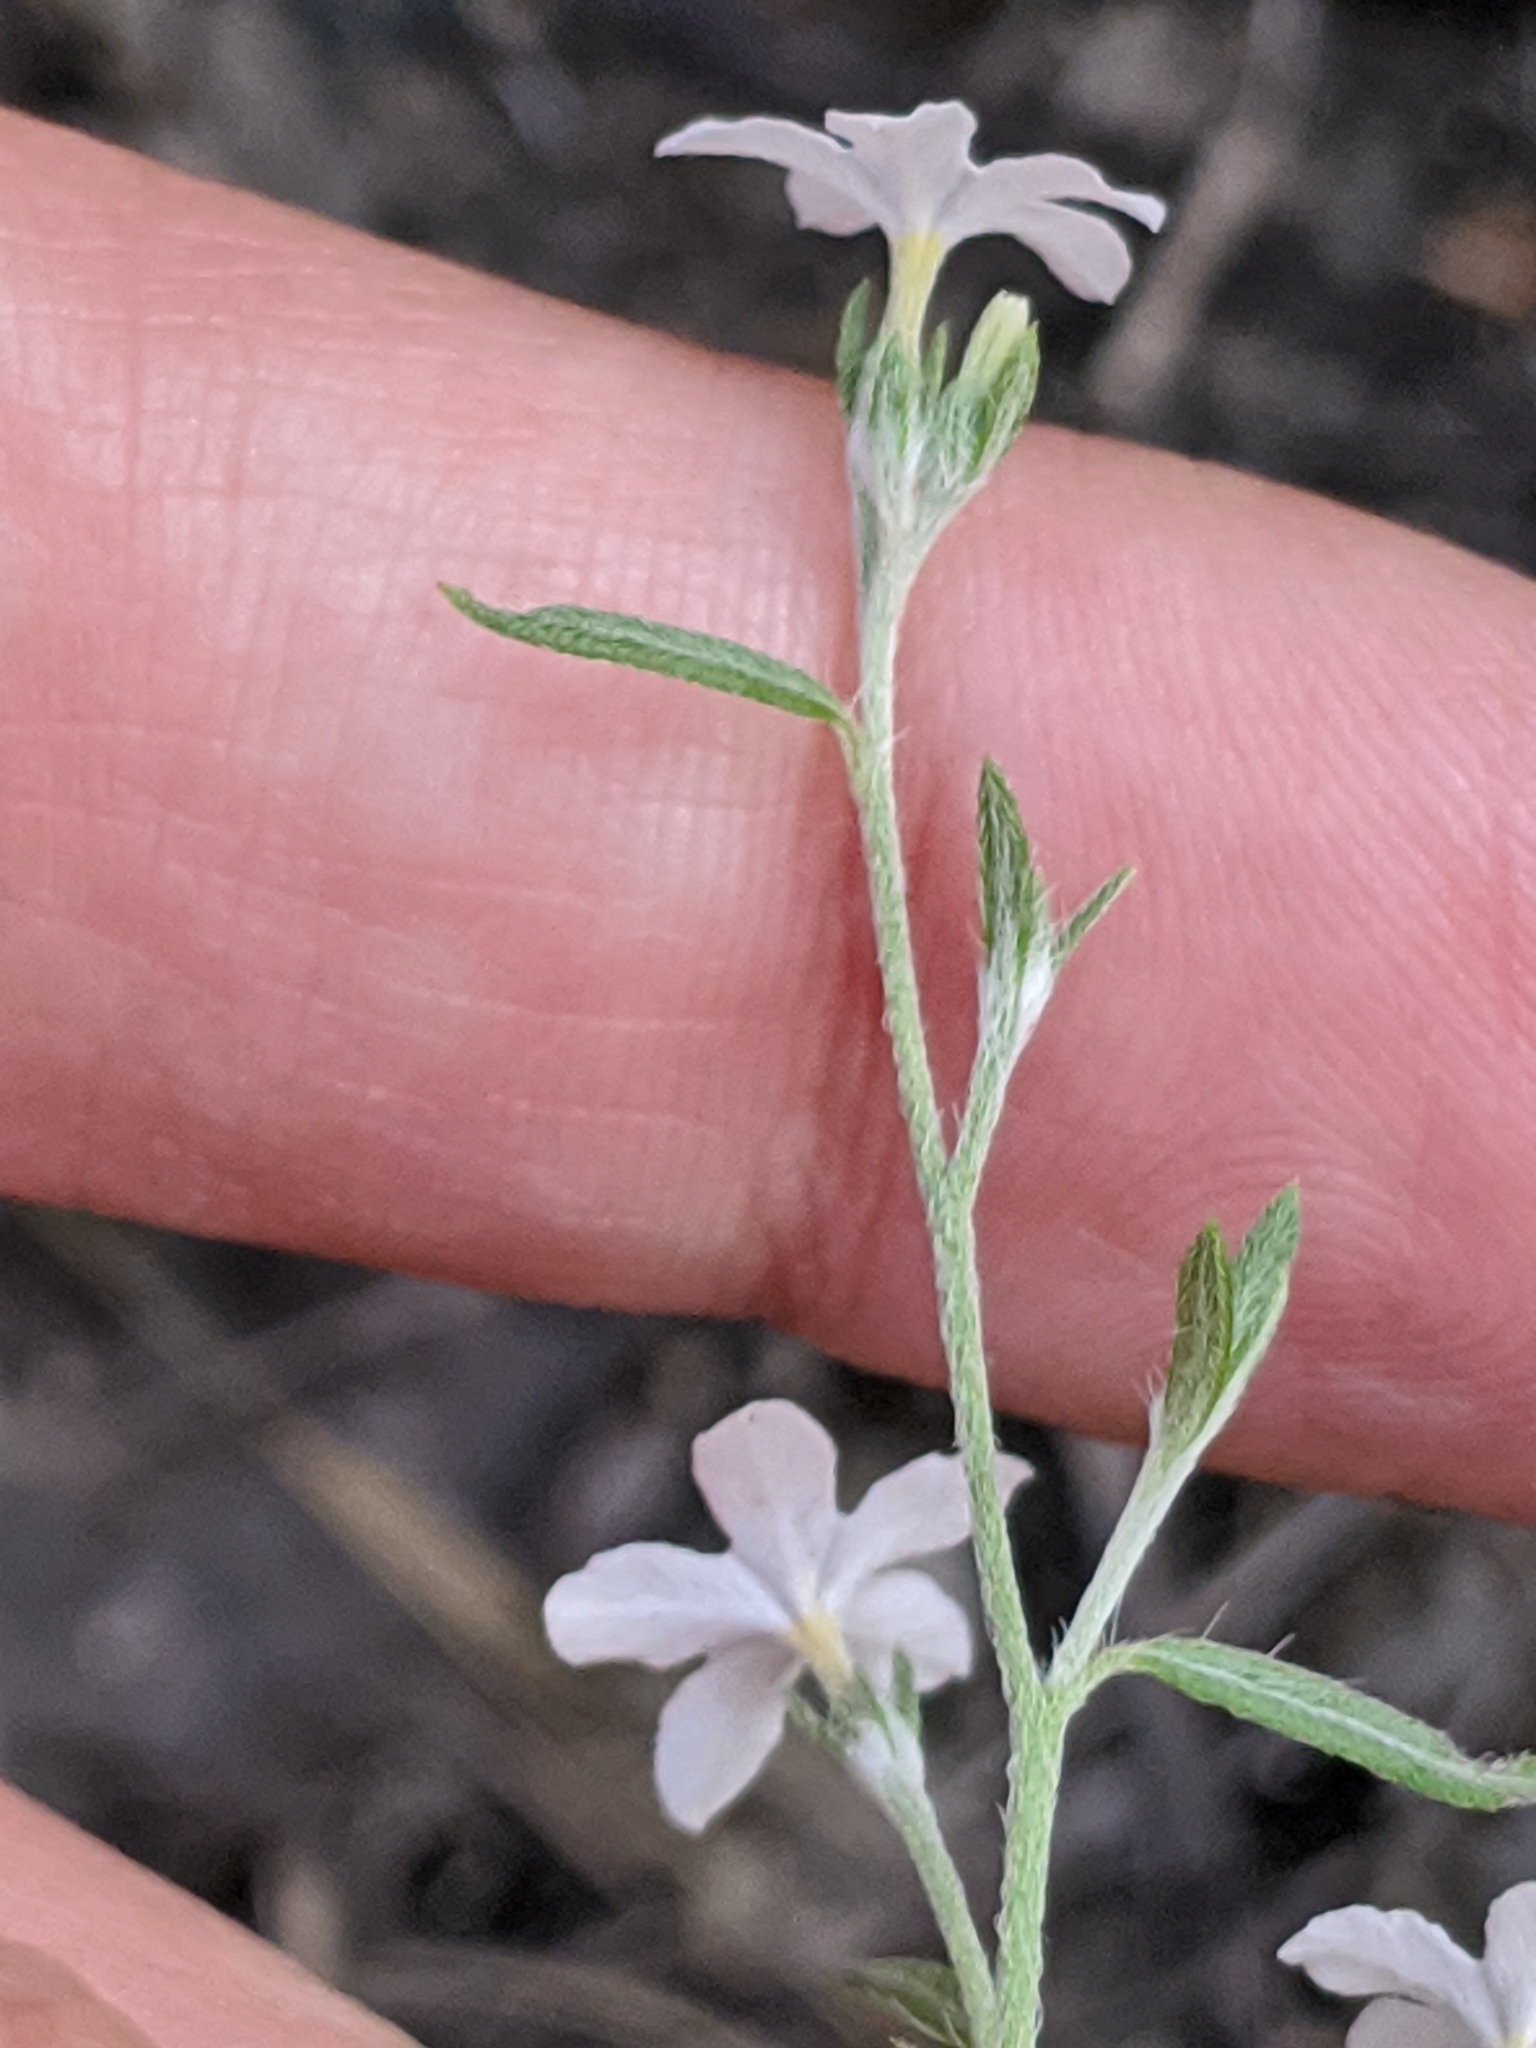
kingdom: Plantae
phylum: Tracheophyta
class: Magnoliopsida
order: Boraginales
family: Heliotropiaceae
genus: Euploca
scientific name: Euploca tenella
